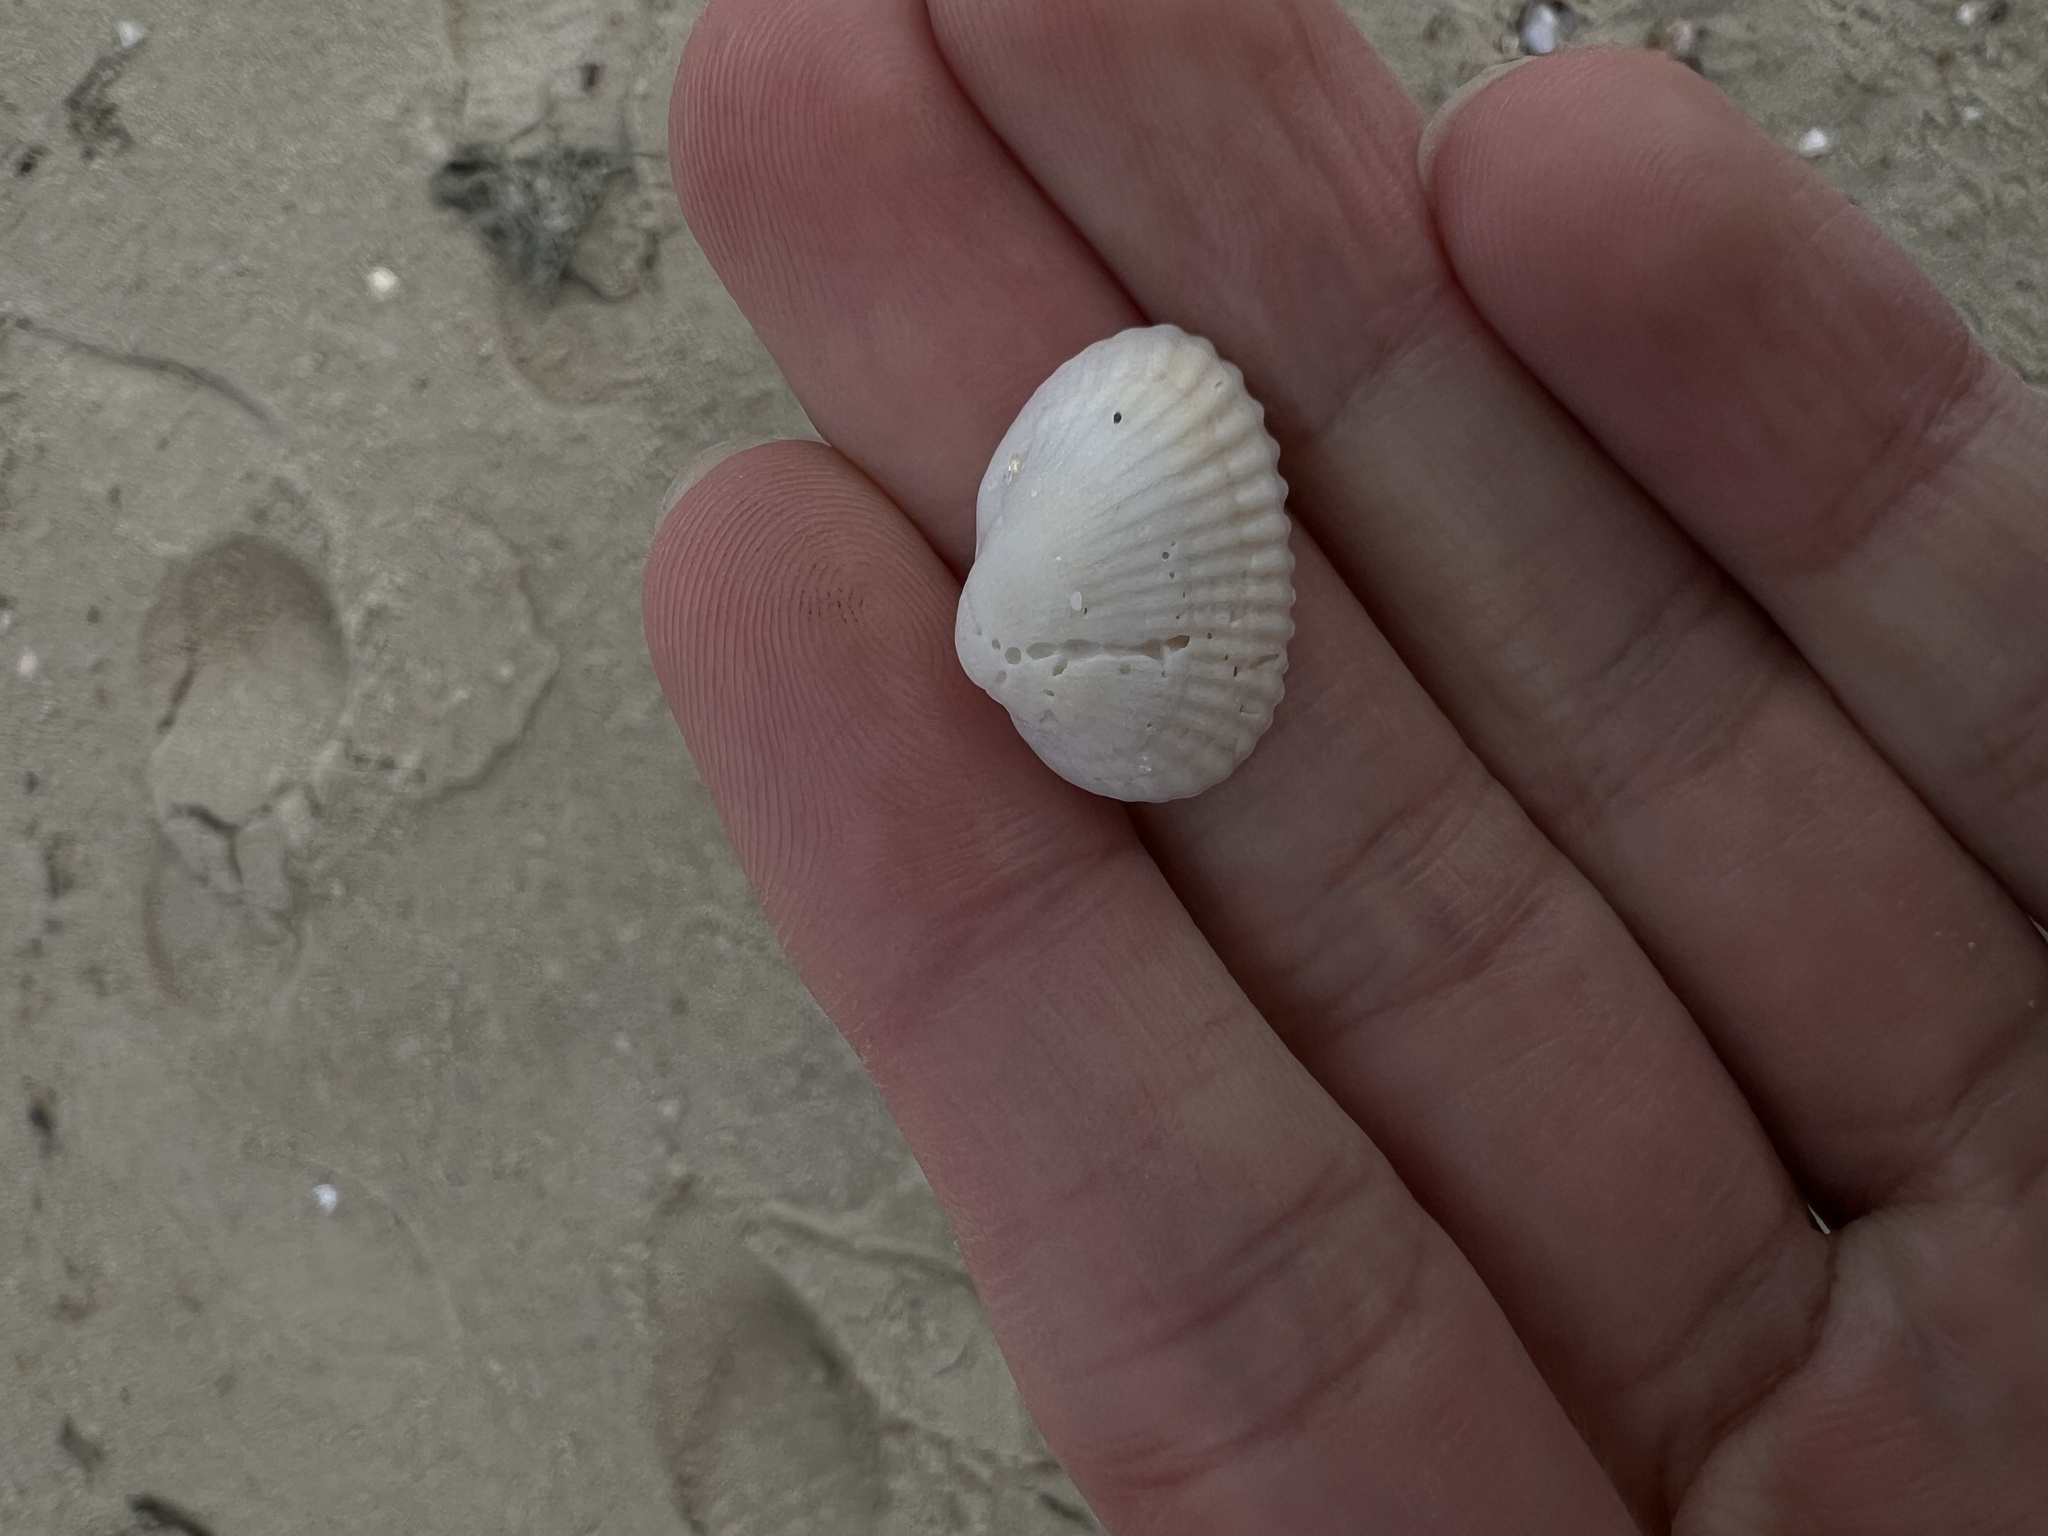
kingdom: Animalia
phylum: Mollusca
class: Bivalvia
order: Arcida
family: Arcidae
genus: Anadara
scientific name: Anadara transversa
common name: Transverse ark
